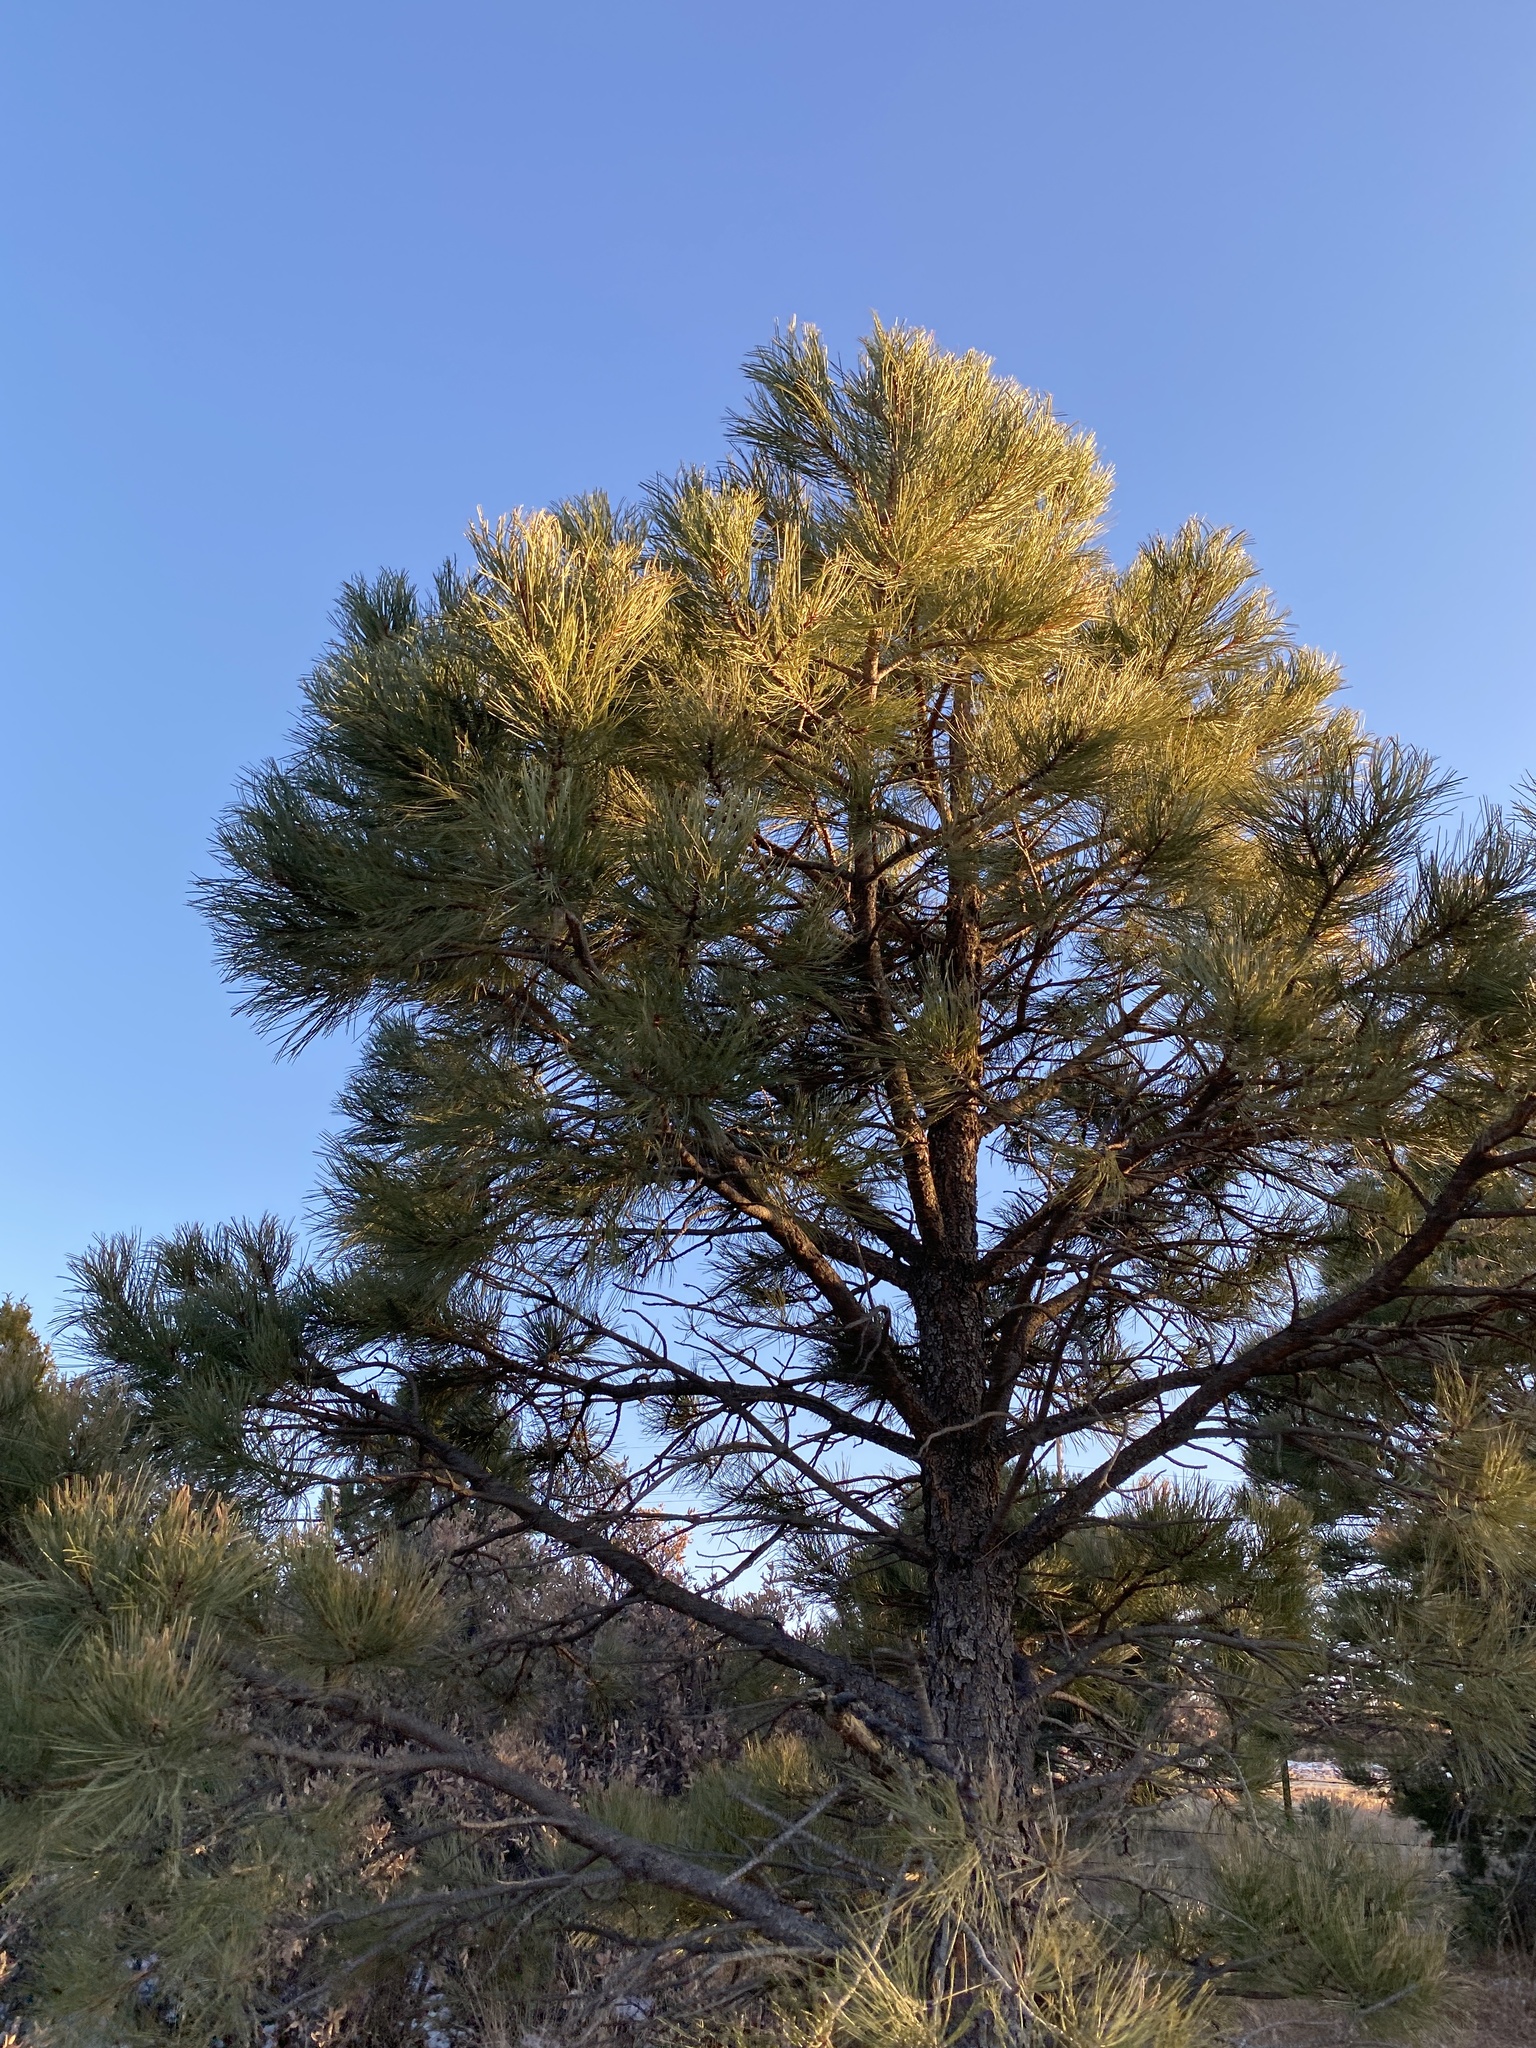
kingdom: Plantae
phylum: Tracheophyta
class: Pinopsida
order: Pinales
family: Pinaceae
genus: Pinus
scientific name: Pinus ponderosa
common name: Western yellow-pine
